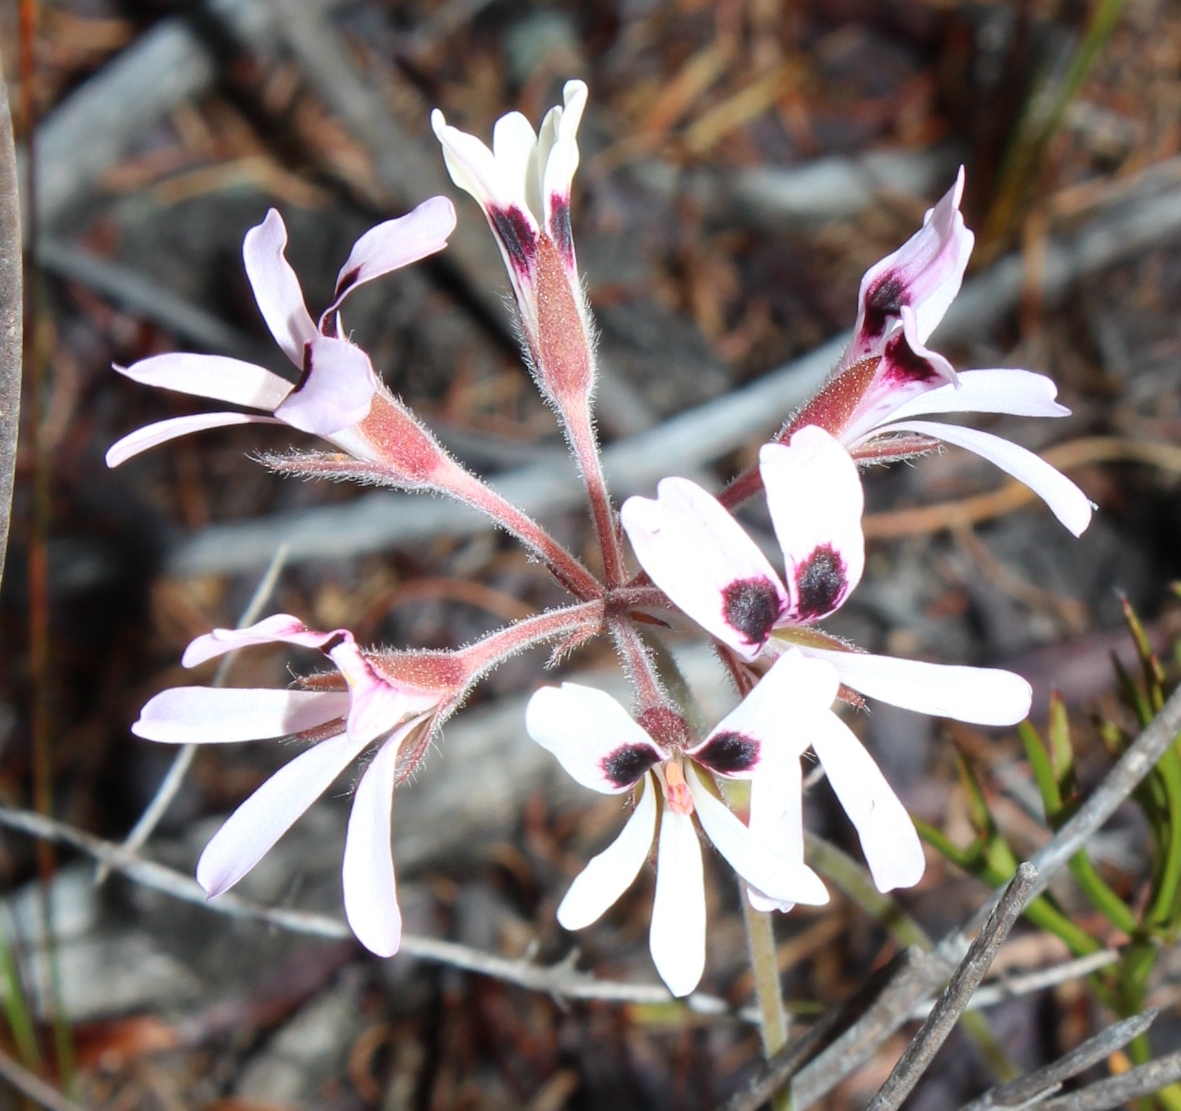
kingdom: Plantae
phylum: Tracheophyta
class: Magnoliopsida
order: Geraniales
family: Geraniaceae
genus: Pelargonium
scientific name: Pelargonium psammophilum
